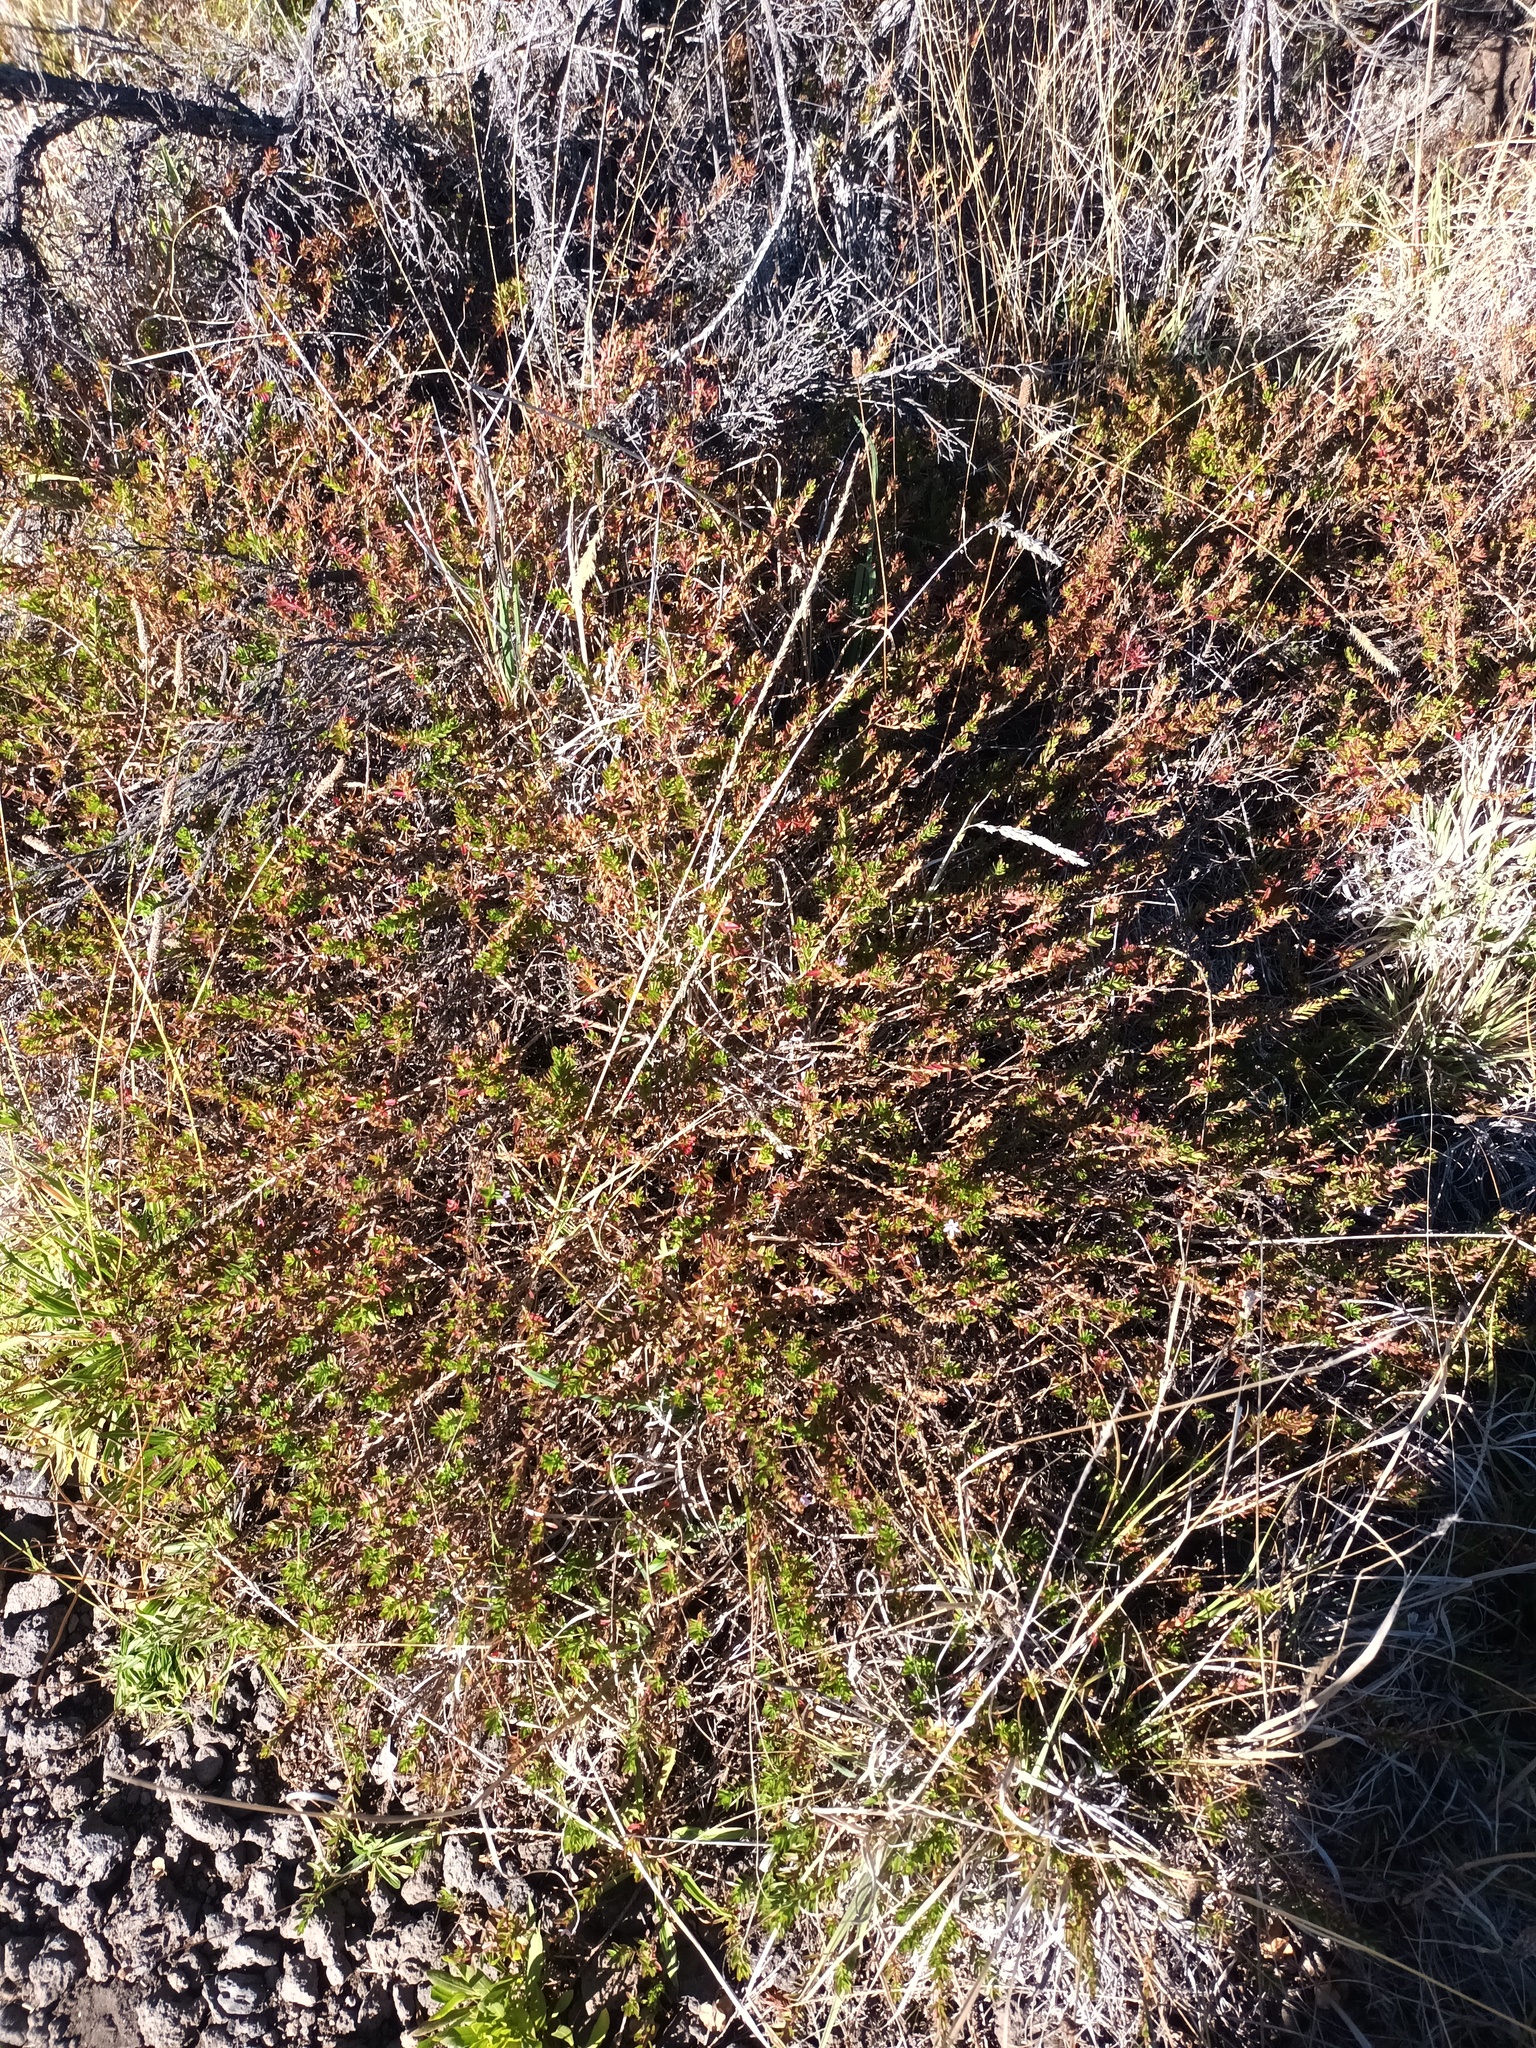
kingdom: Plantae
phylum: Tracheophyta
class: Magnoliopsida
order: Myrtales
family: Lythraceae
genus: Lythrum
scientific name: Lythrum maritimum
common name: Pukamole
